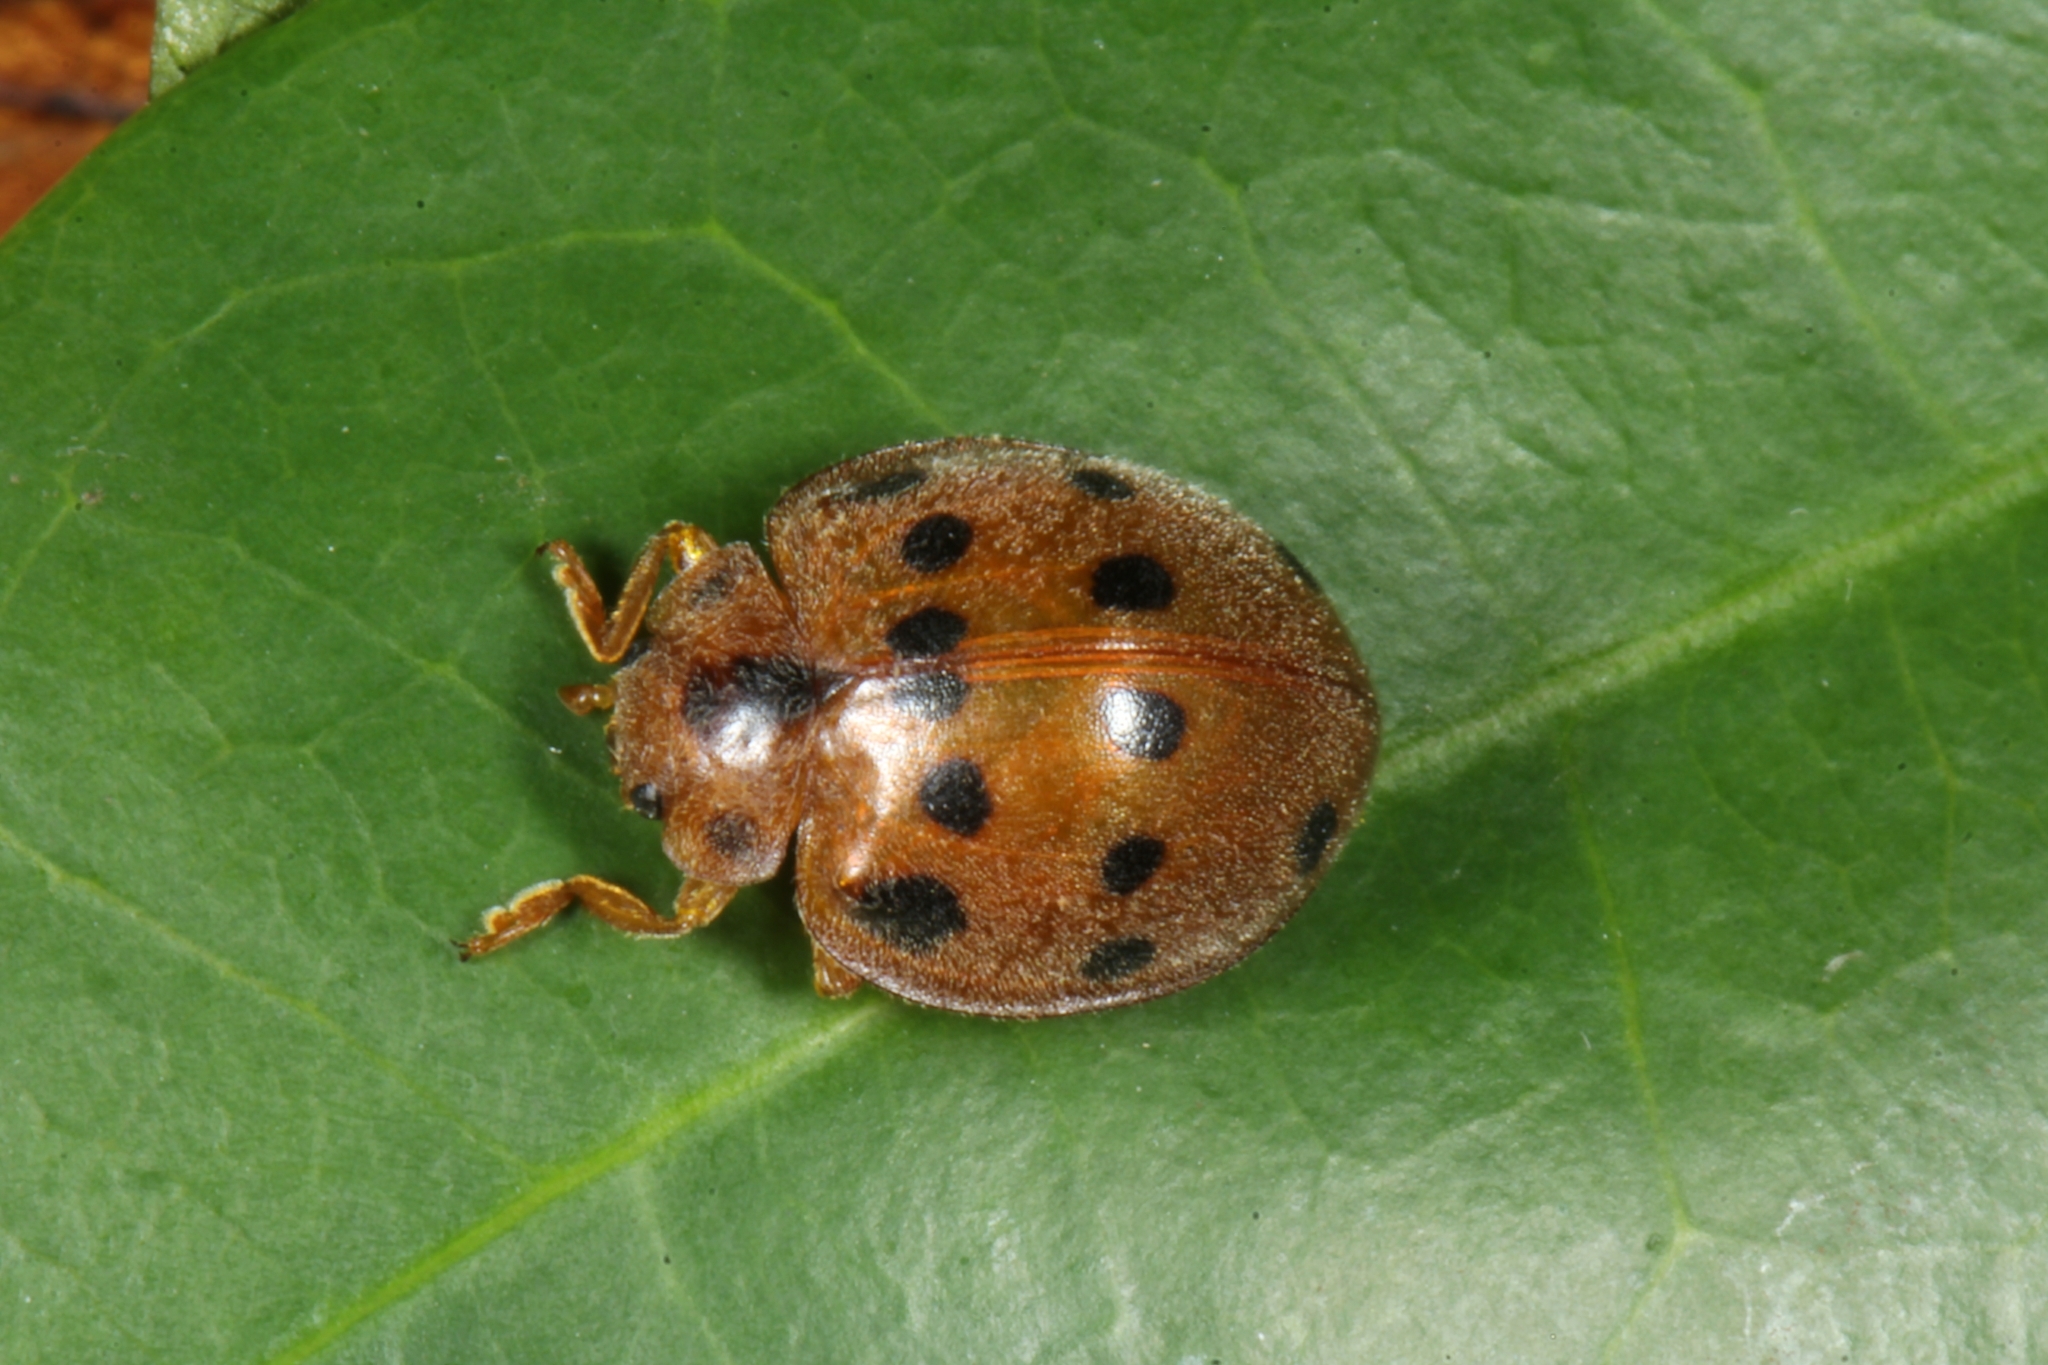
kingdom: Animalia
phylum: Arthropoda
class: Insecta
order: Coleoptera
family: Coccinellidae
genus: Epilachna
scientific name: Epilachna tredecimnotata
